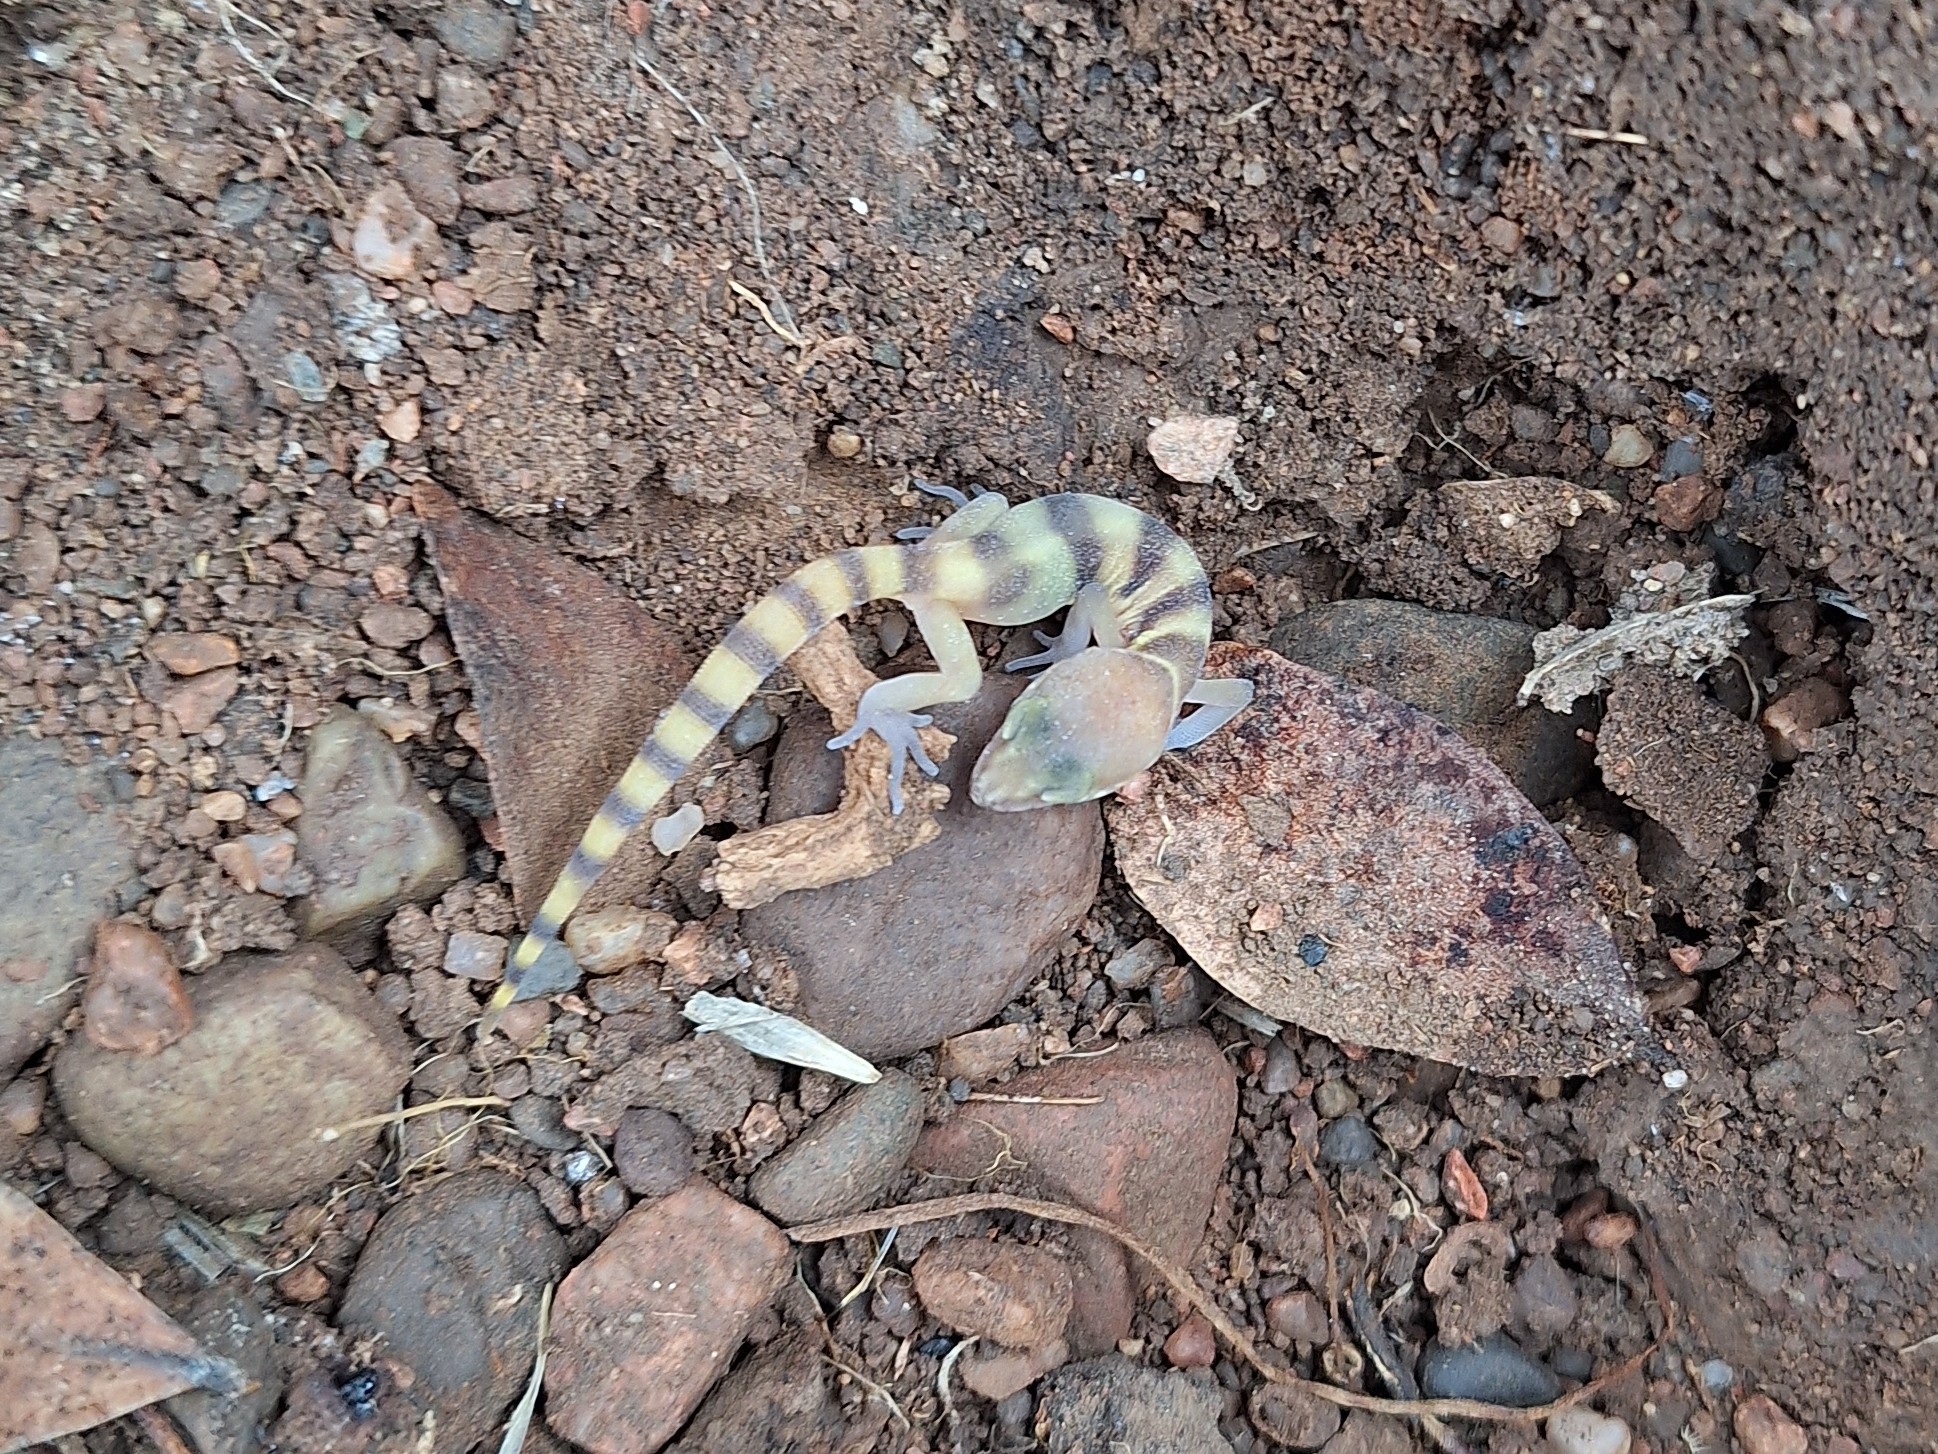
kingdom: Animalia
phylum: Chordata
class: Squamata
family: Eublepharidae
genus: Coleonyx
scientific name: Coleonyx variegatus
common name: Western banded gecko
